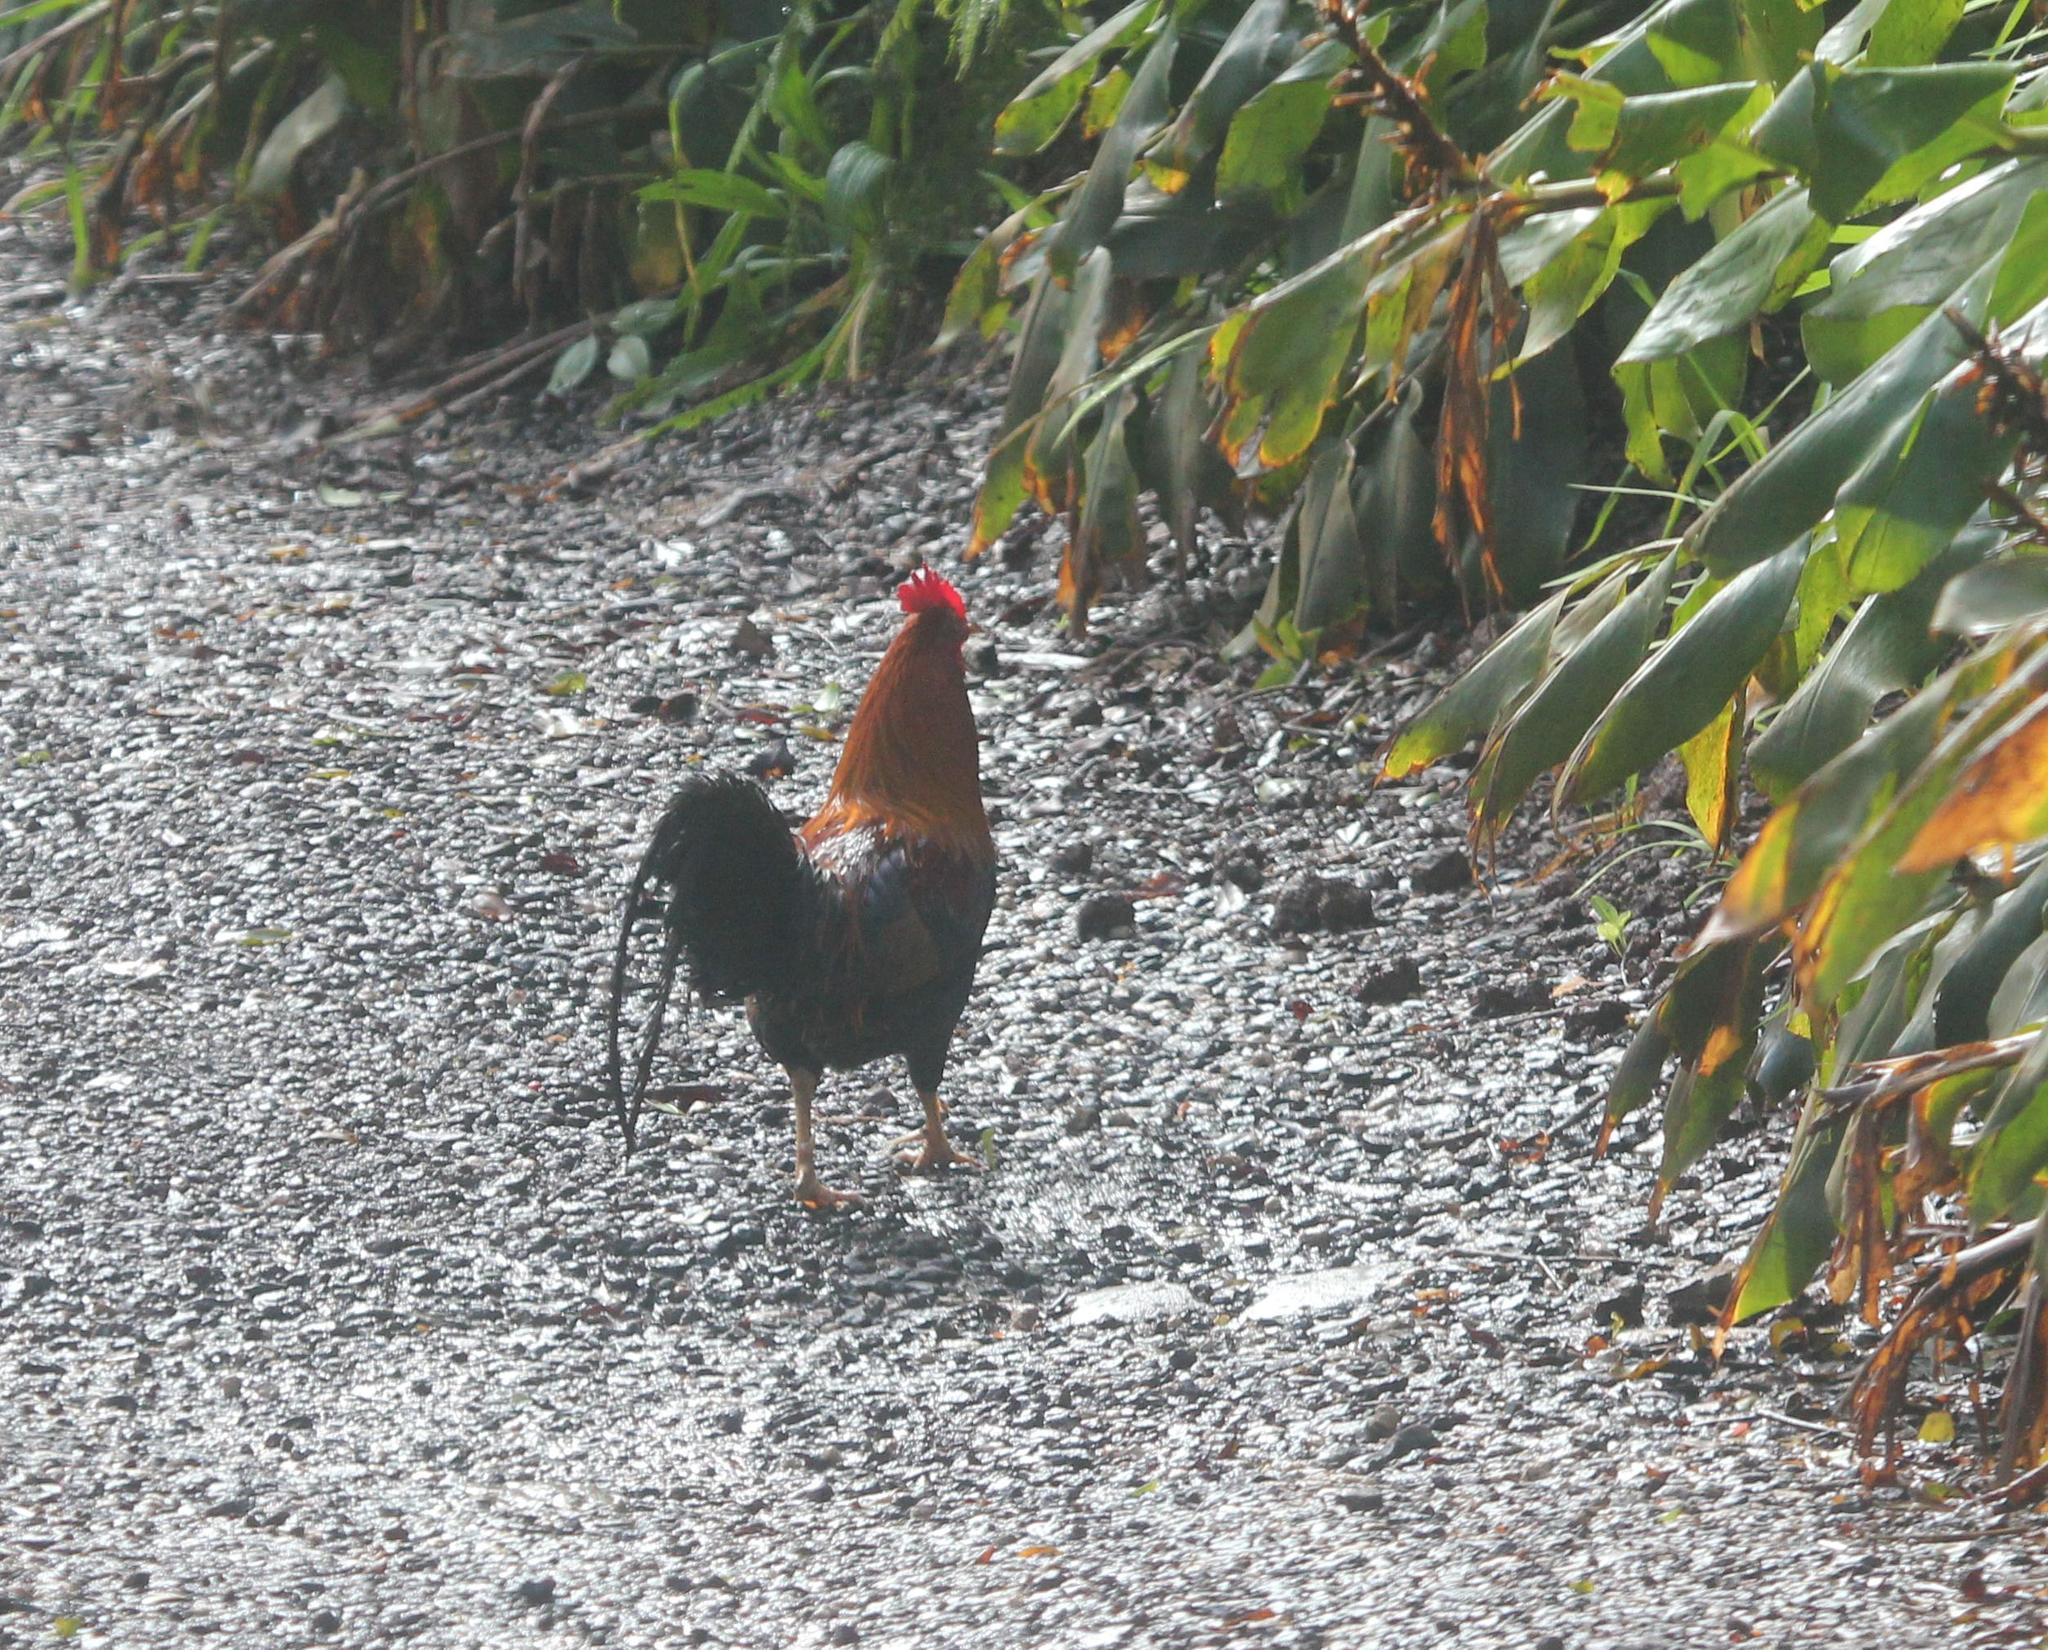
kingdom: Animalia
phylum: Chordata
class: Aves
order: Galliformes
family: Phasianidae
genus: Gallus
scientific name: Gallus gallus
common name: Red junglefowl
